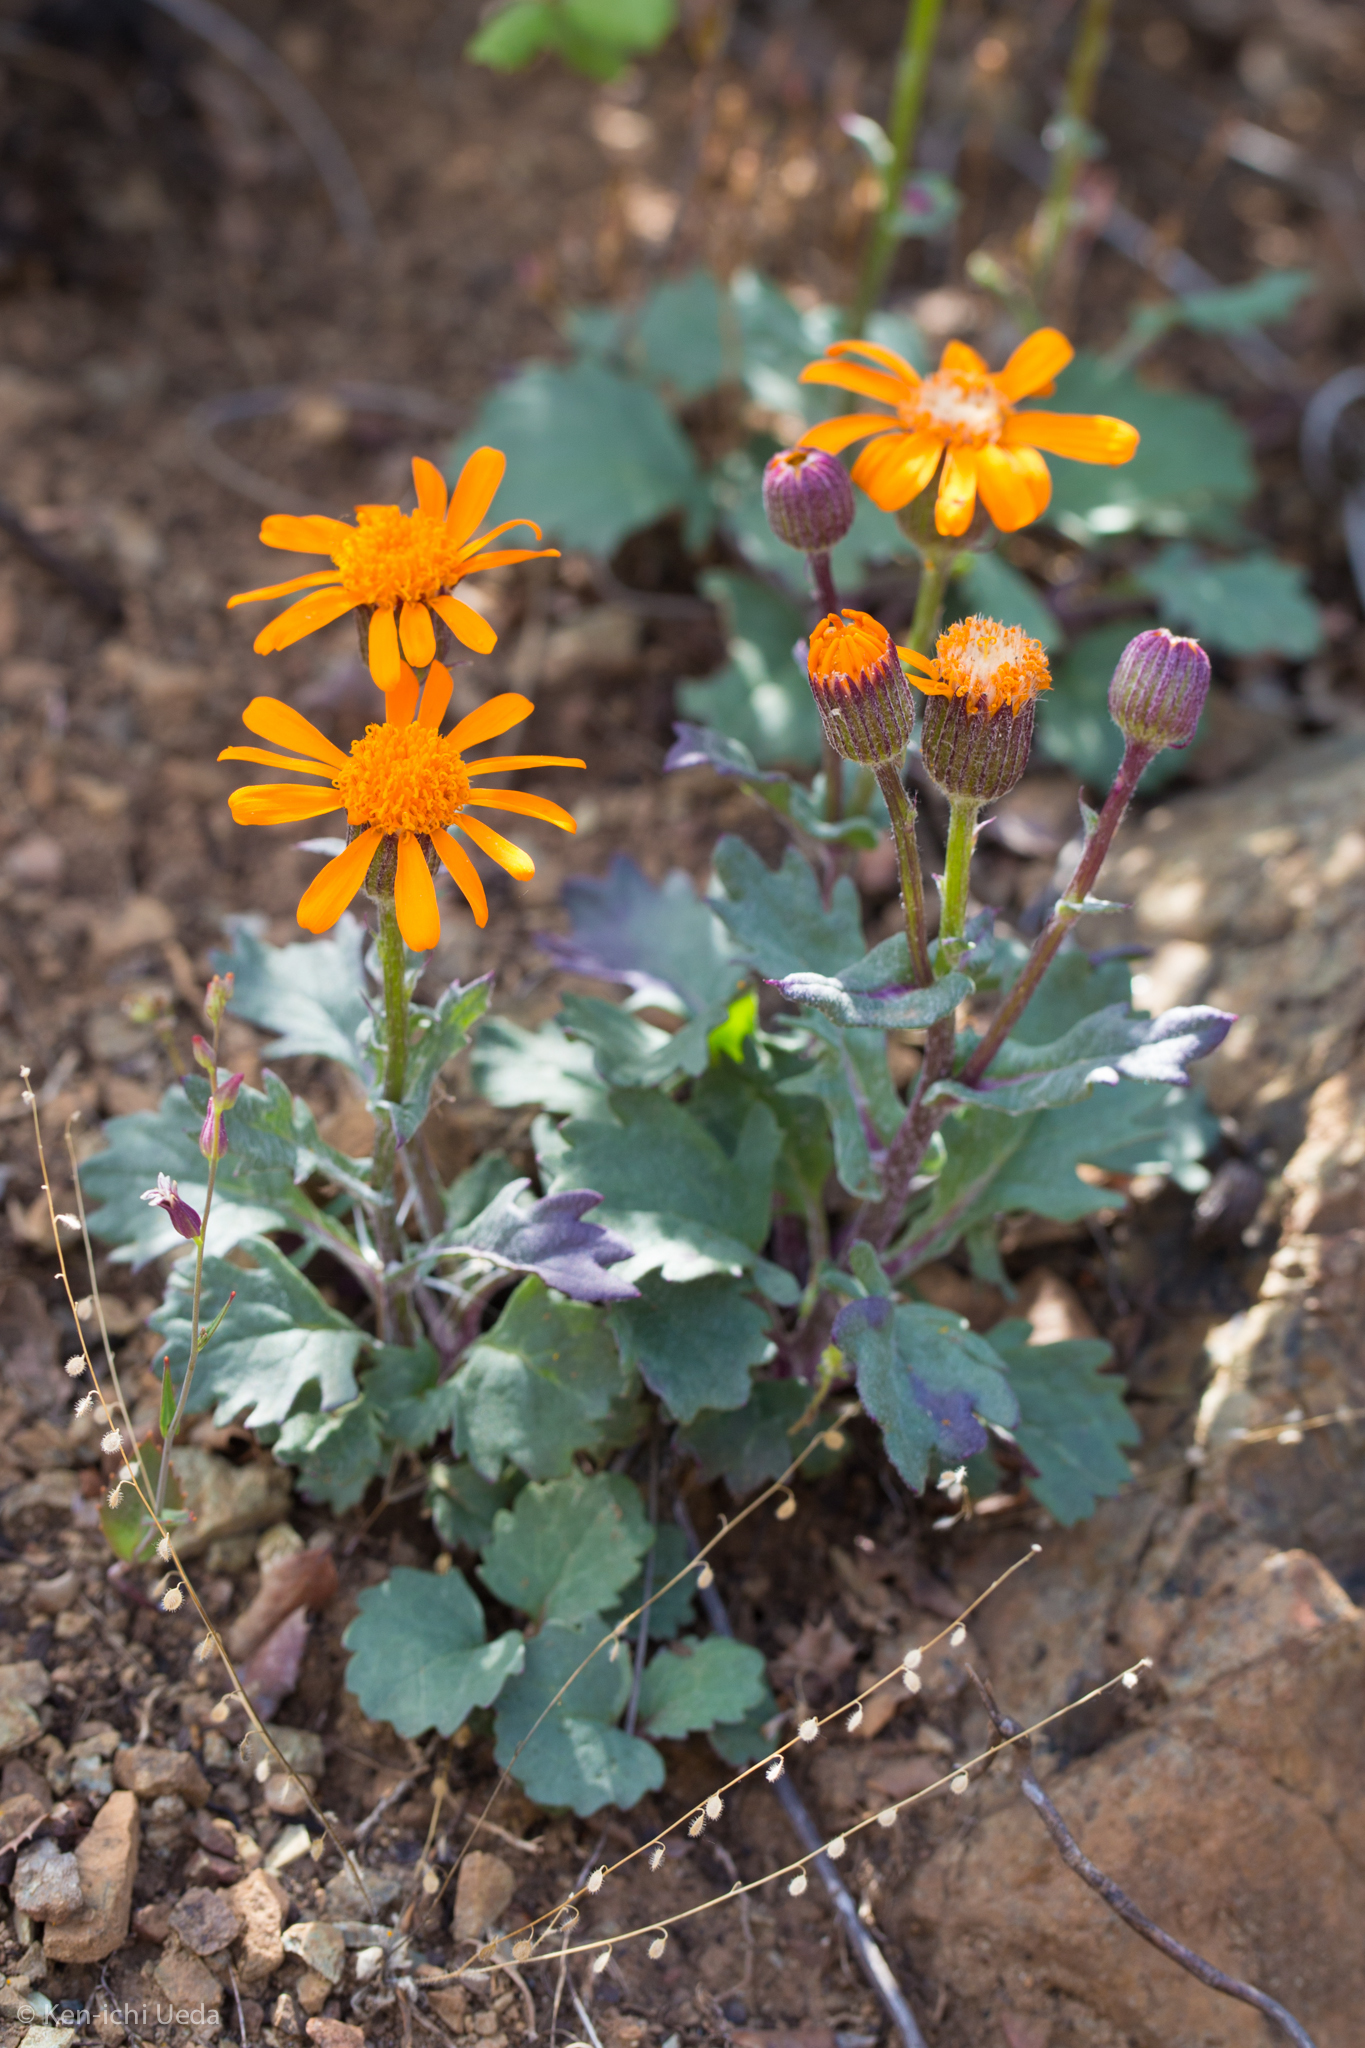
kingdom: Plantae
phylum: Tracheophyta
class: Magnoliopsida
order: Asterales
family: Asteraceae
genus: Packera
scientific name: Packera greenei
